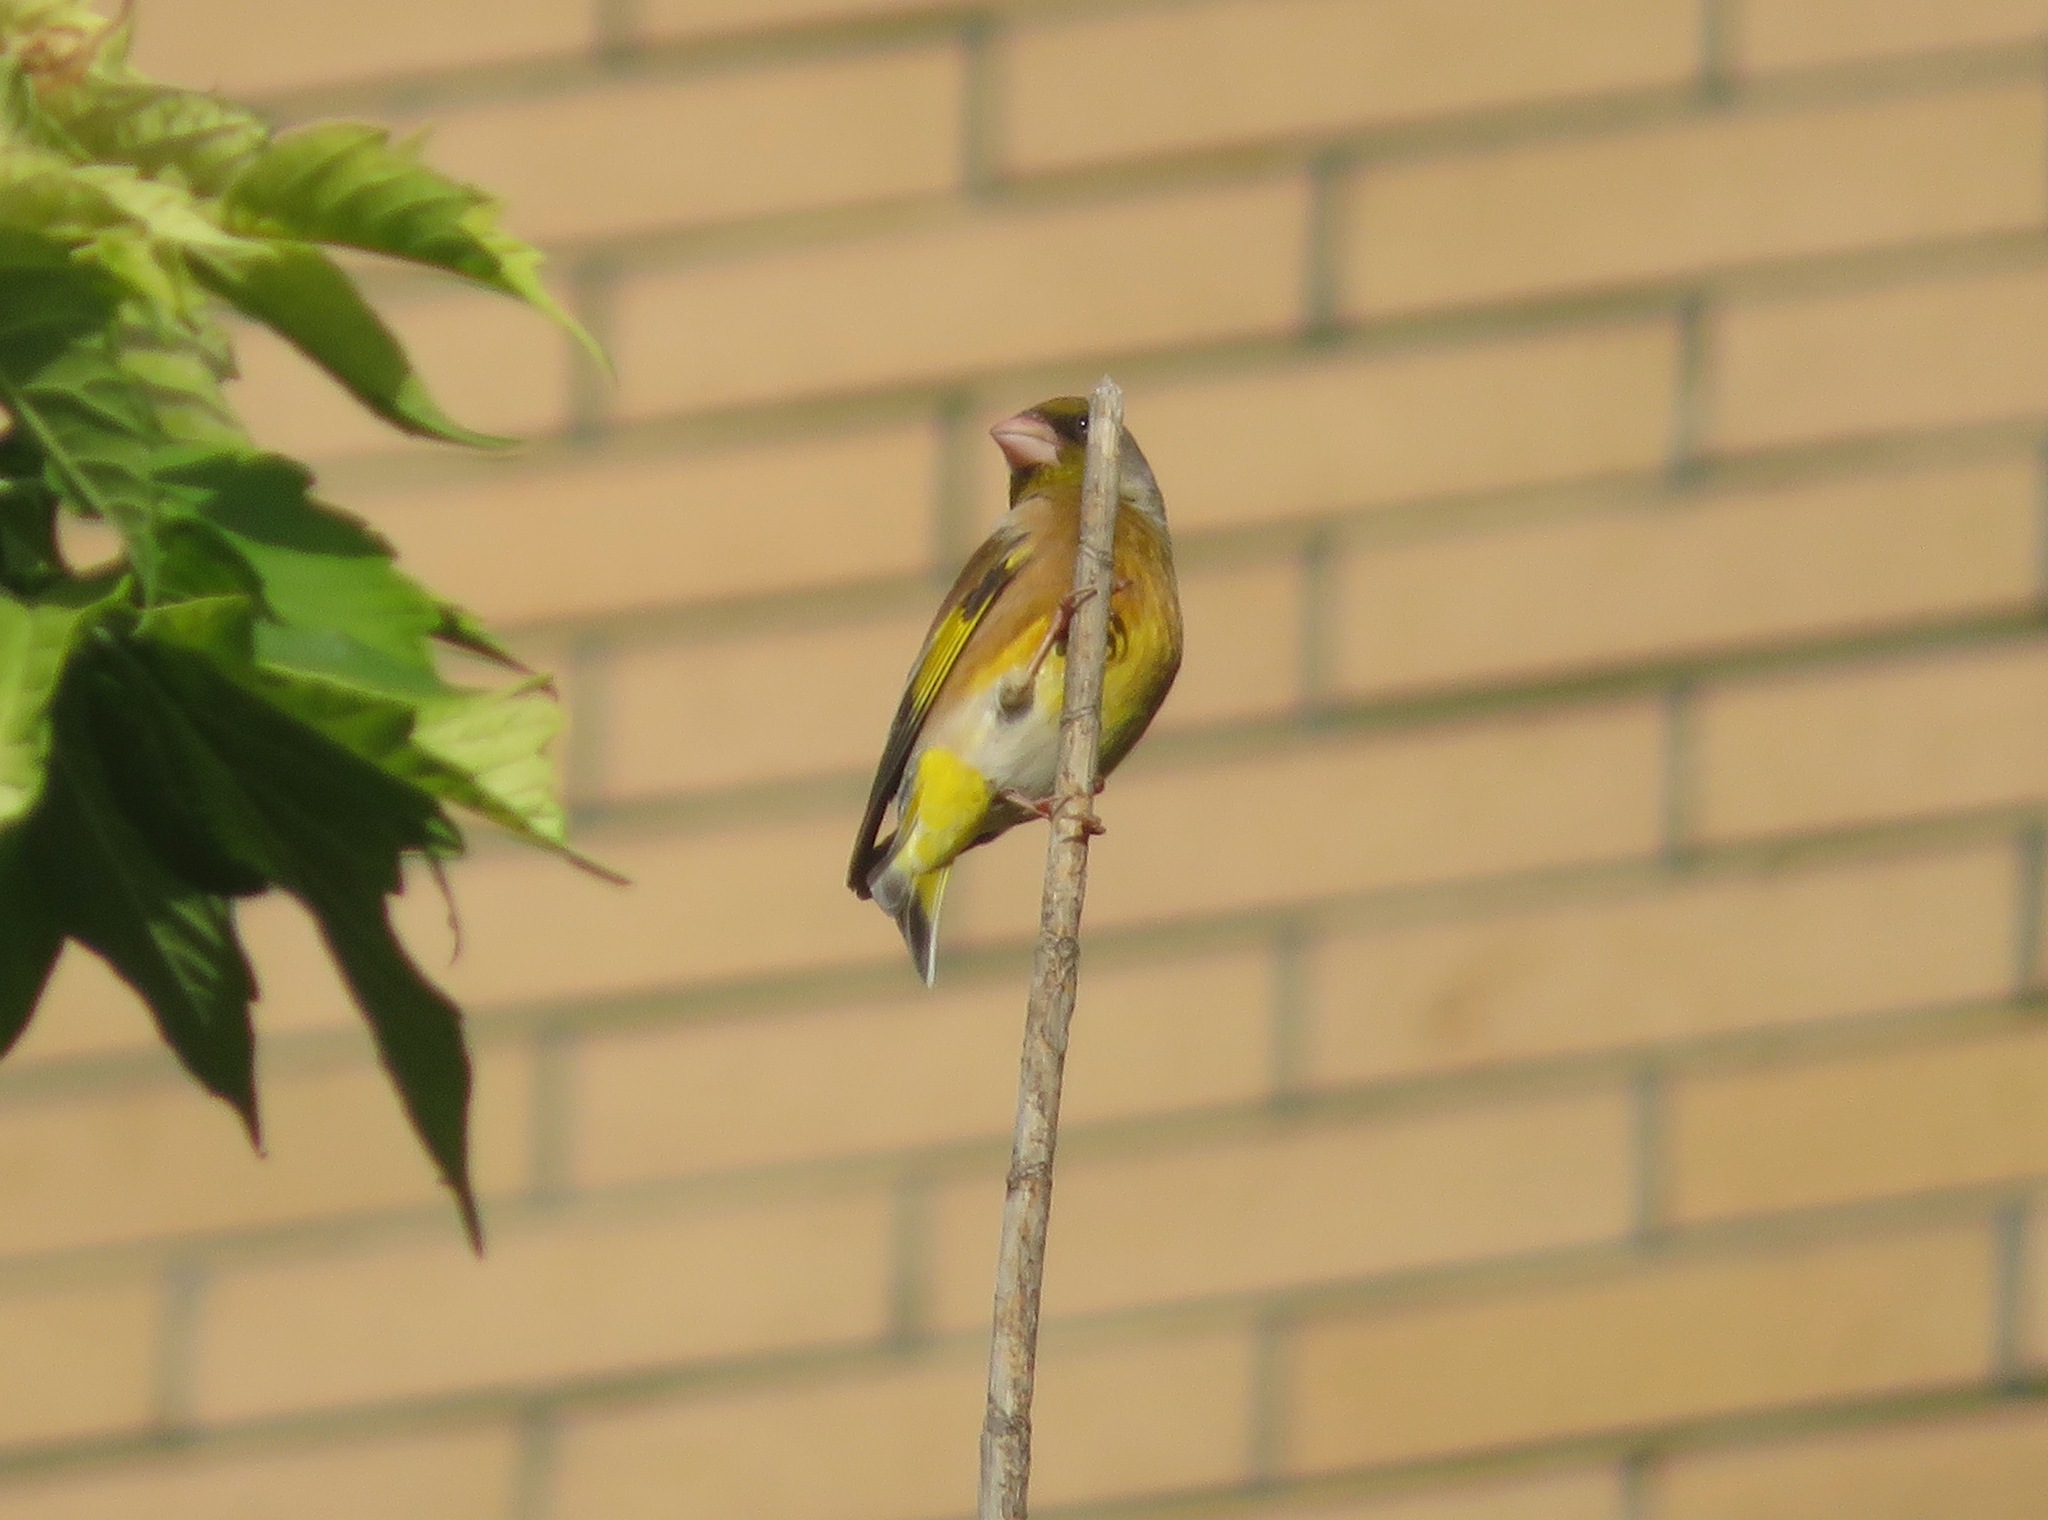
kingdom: Plantae
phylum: Tracheophyta
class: Liliopsida
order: Poales
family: Poaceae
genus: Chloris
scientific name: Chloris sinica
